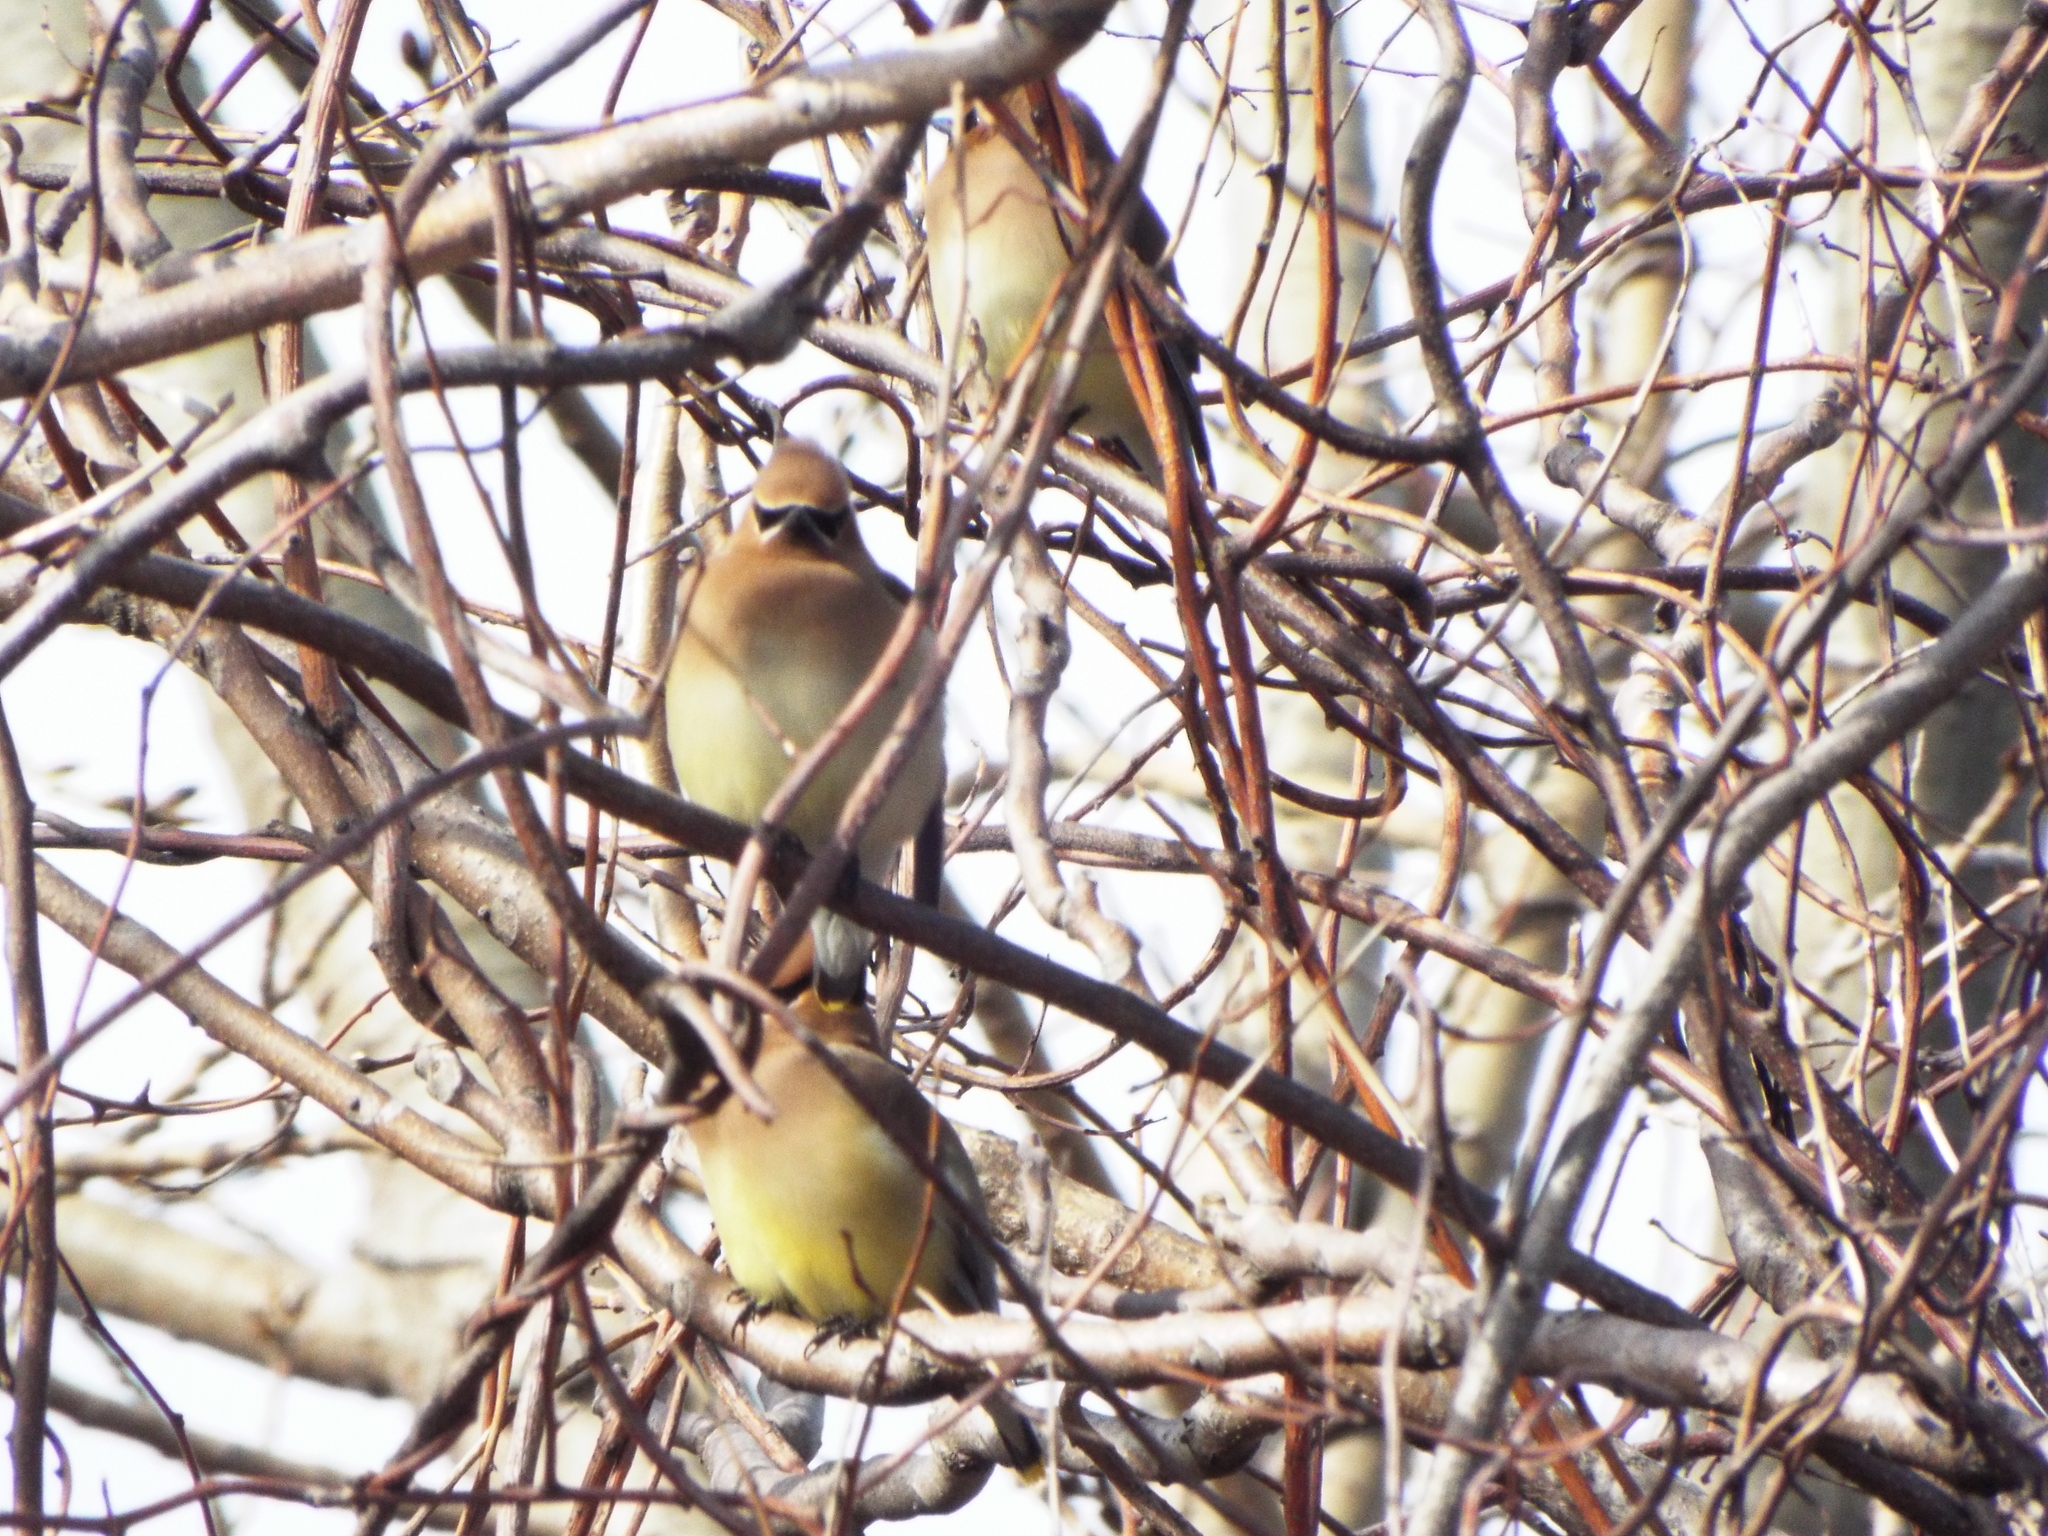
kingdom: Animalia
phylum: Chordata
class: Aves
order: Passeriformes
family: Bombycillidae
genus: Bombycilla
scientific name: Bombycilla cedrorum
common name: Cedar waxwing
